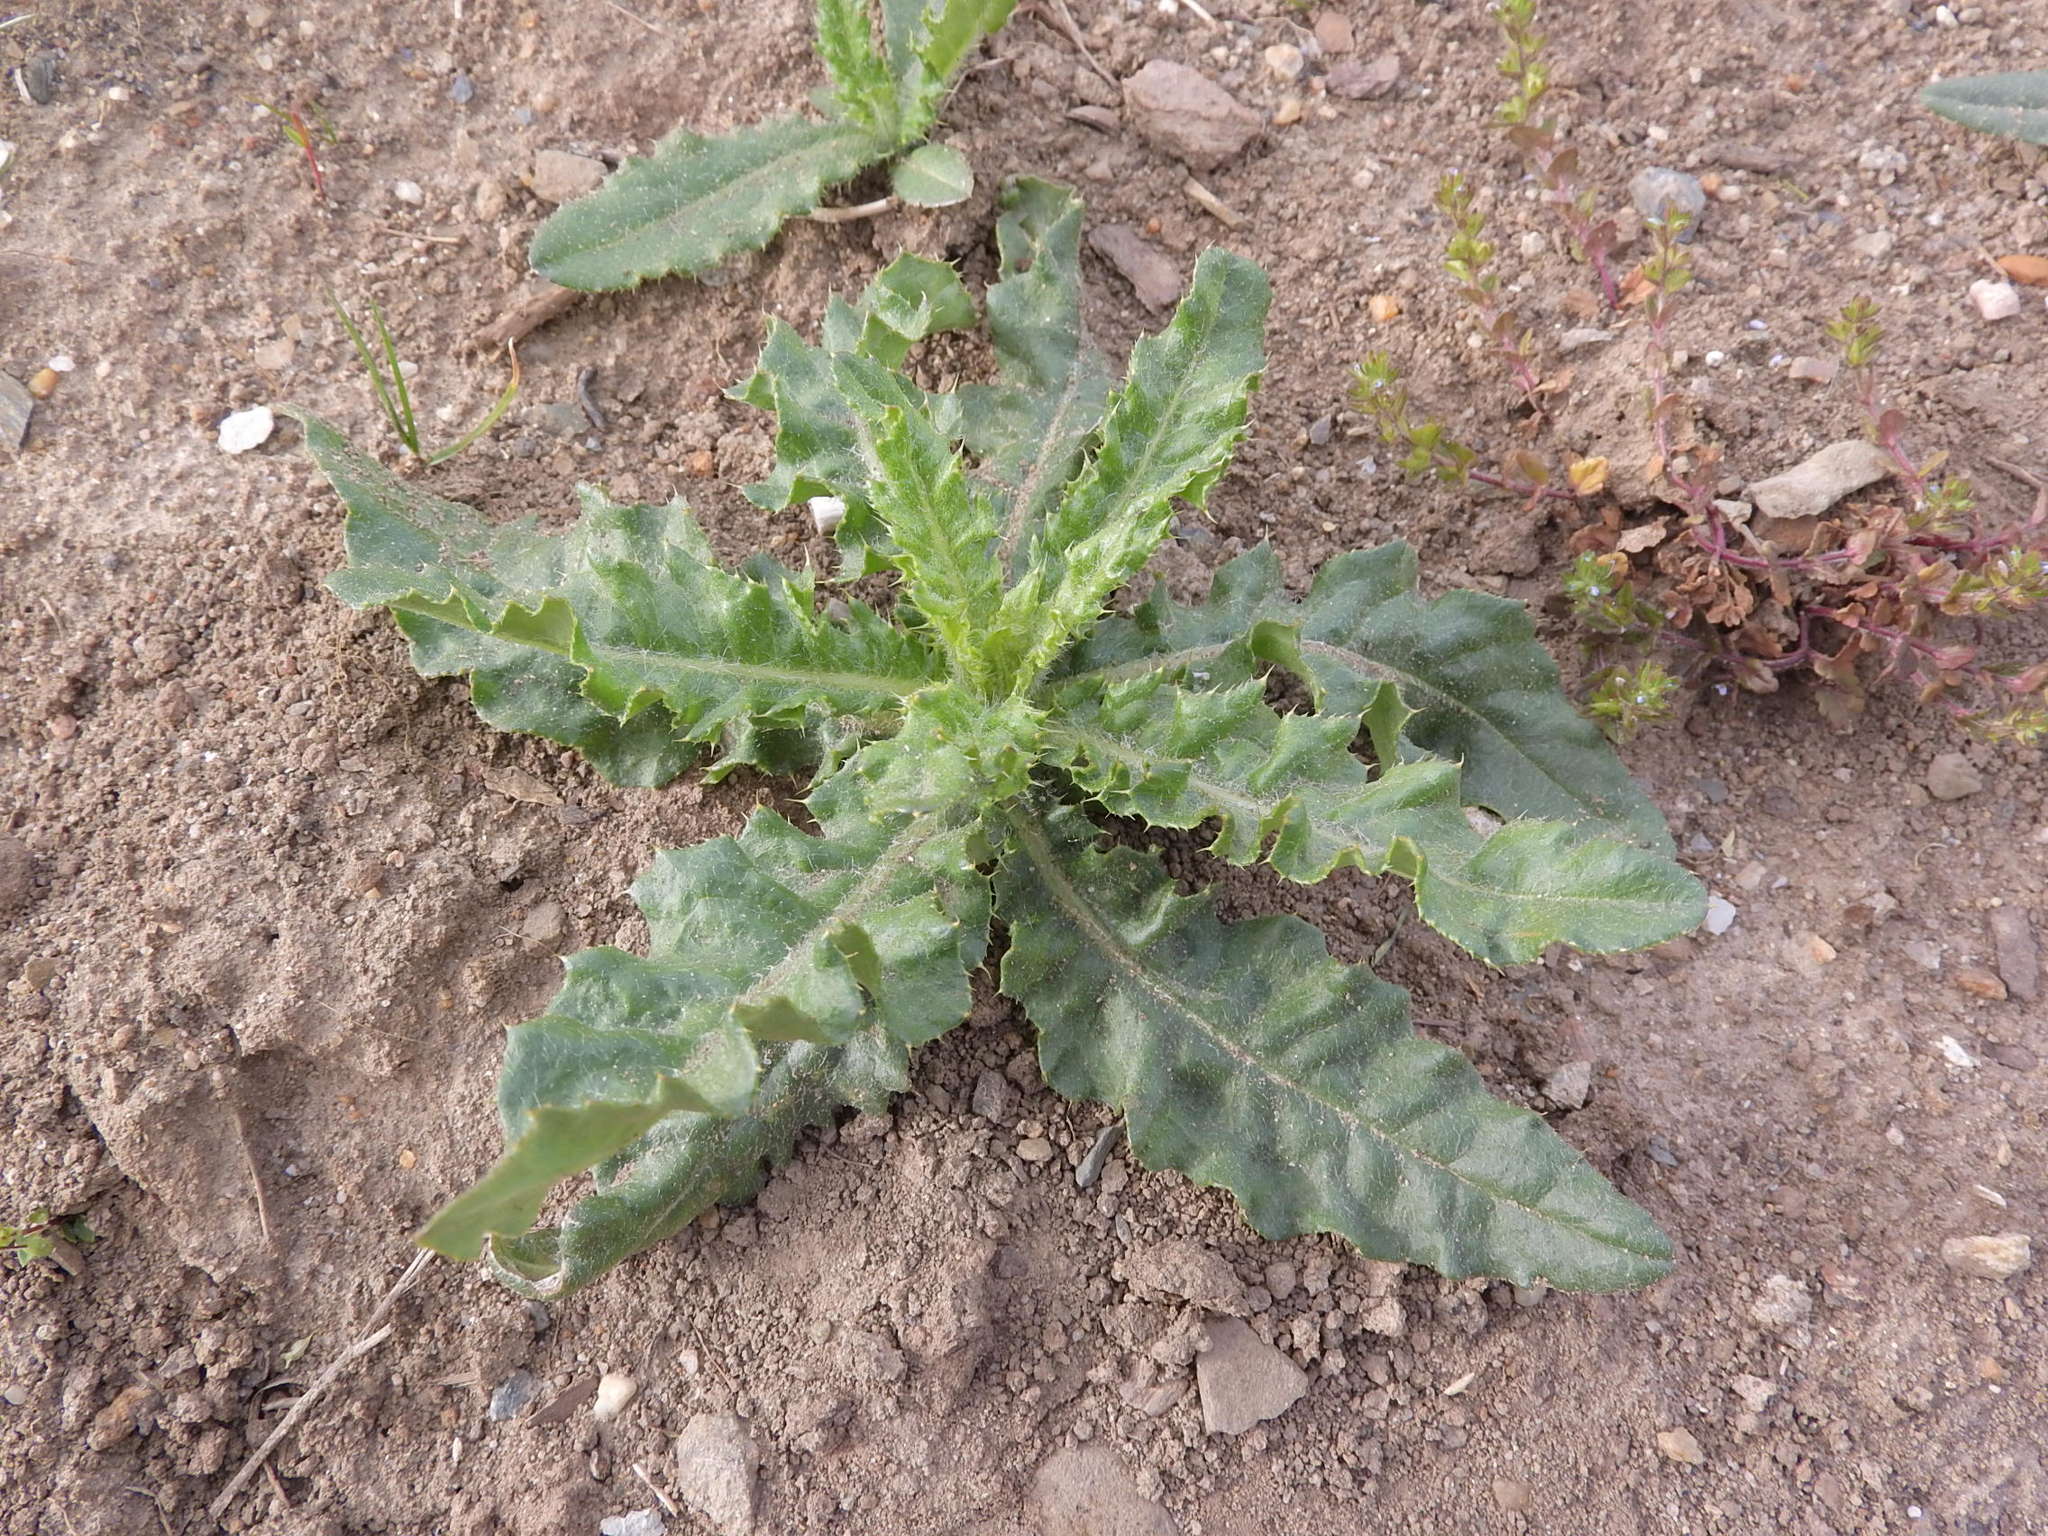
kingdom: Plantae
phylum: Tracheophyta
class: Magnoliopsida
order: Asterales
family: Asteraceae
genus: Cirsium
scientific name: Cirsium arvense
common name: Creeping thistle
